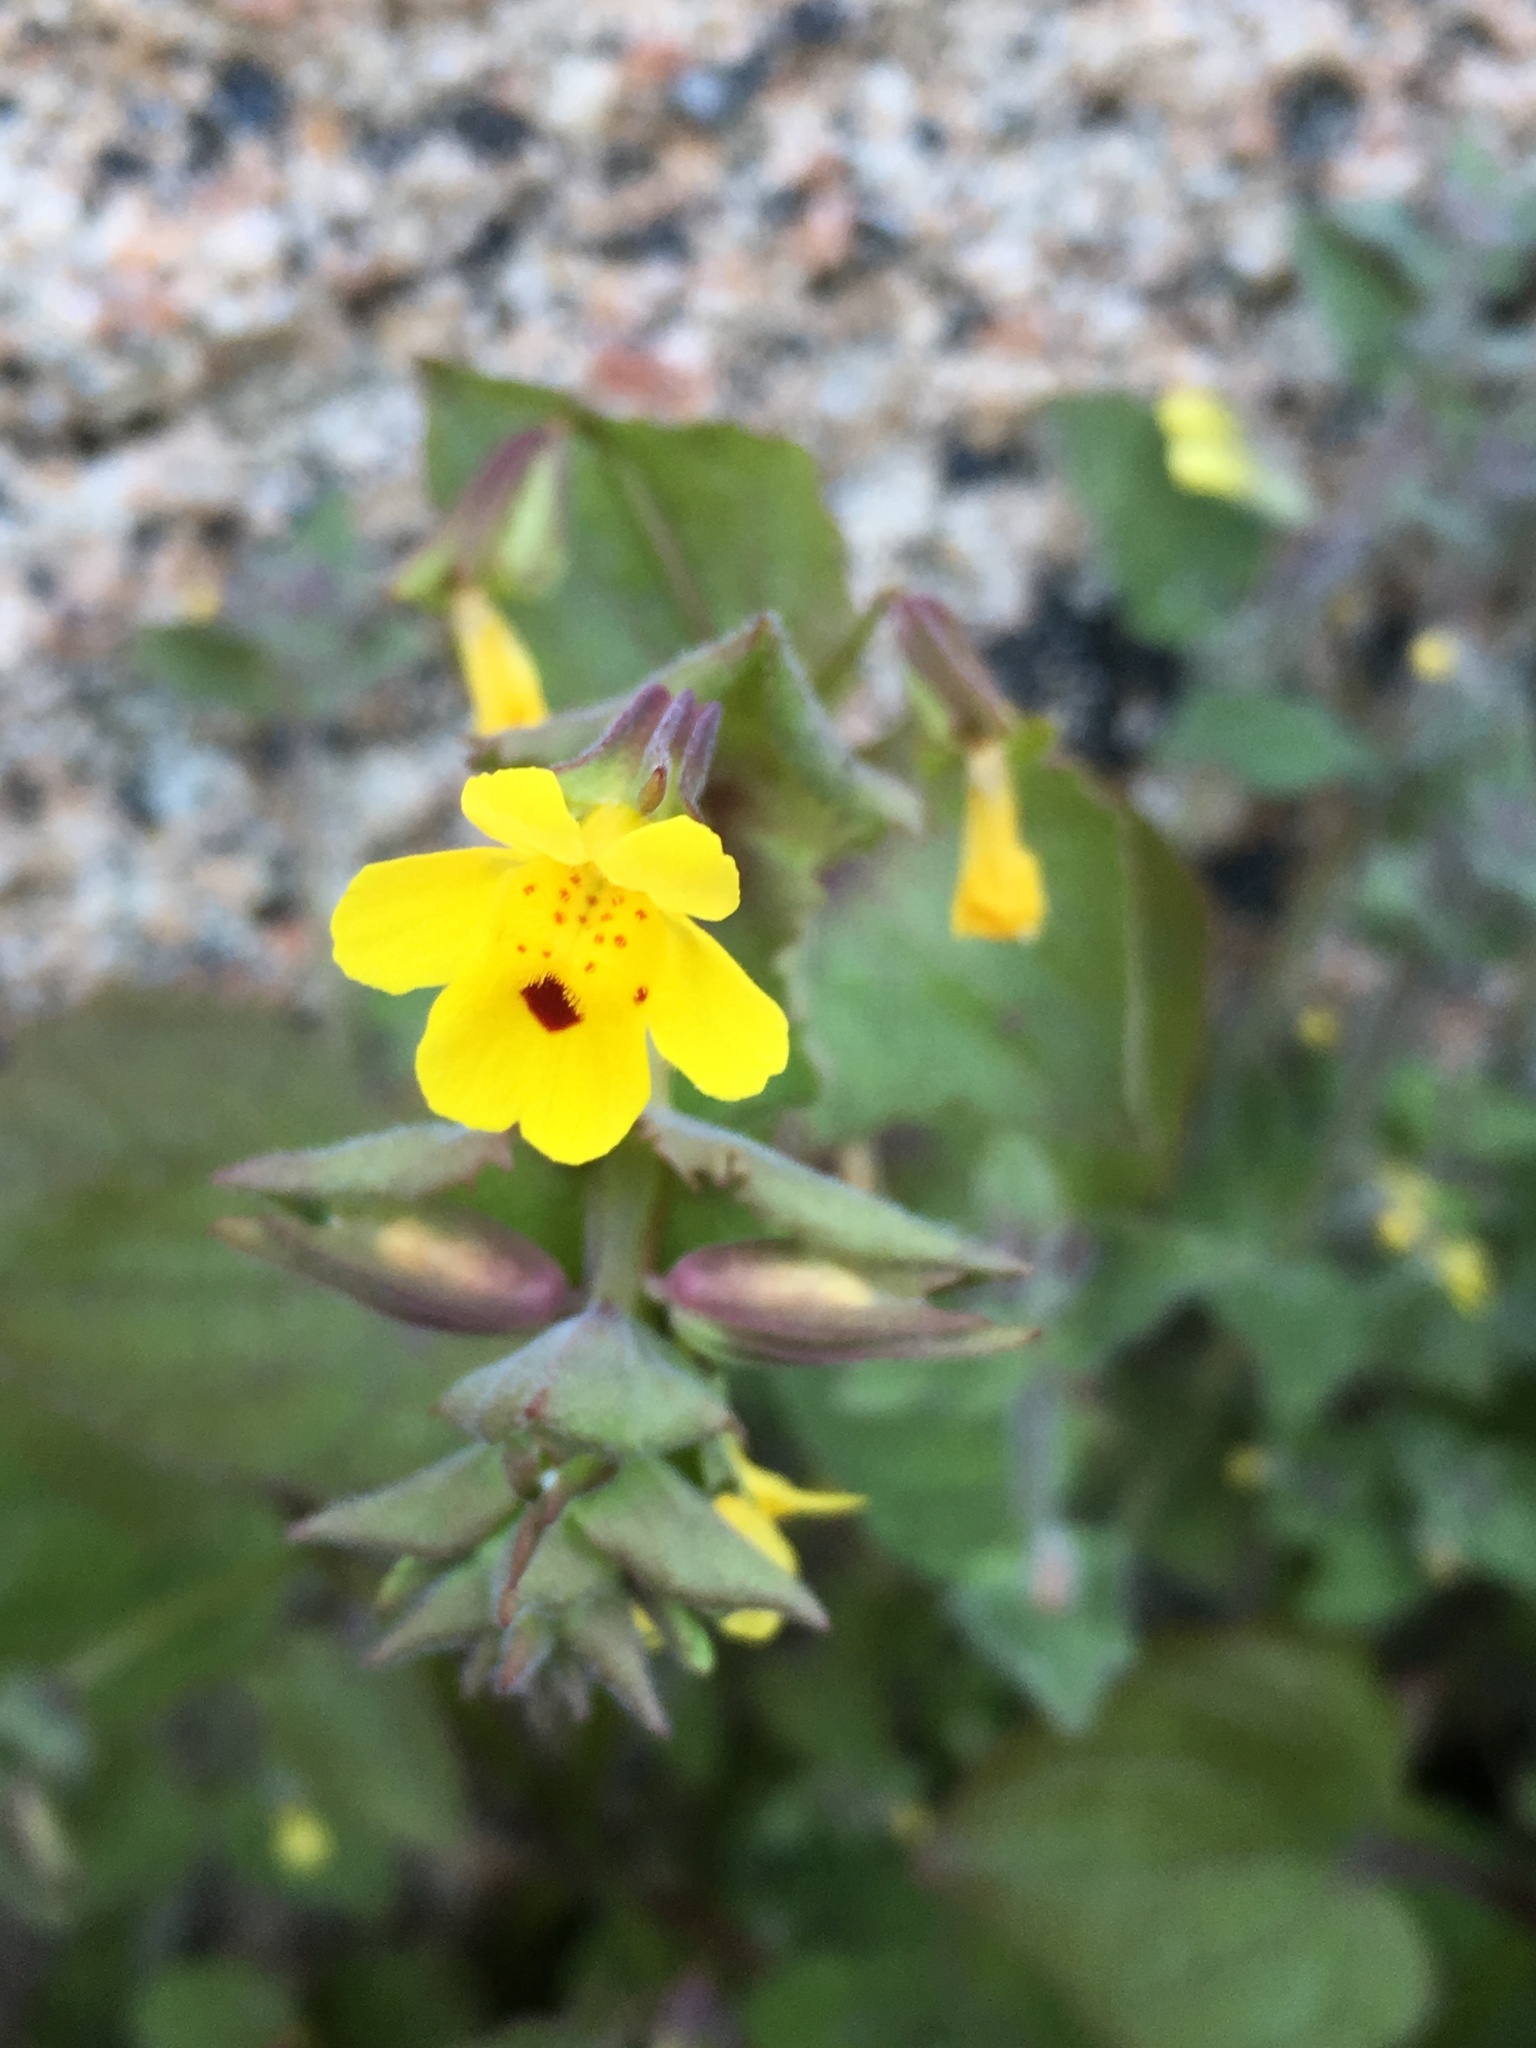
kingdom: Plantae
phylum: Tracheophyta
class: Magnoliopsida
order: Lamiales
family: Phrymaceae
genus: Erythranthe
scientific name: Erythranthe nasuta
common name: Sooke monkeyflower
